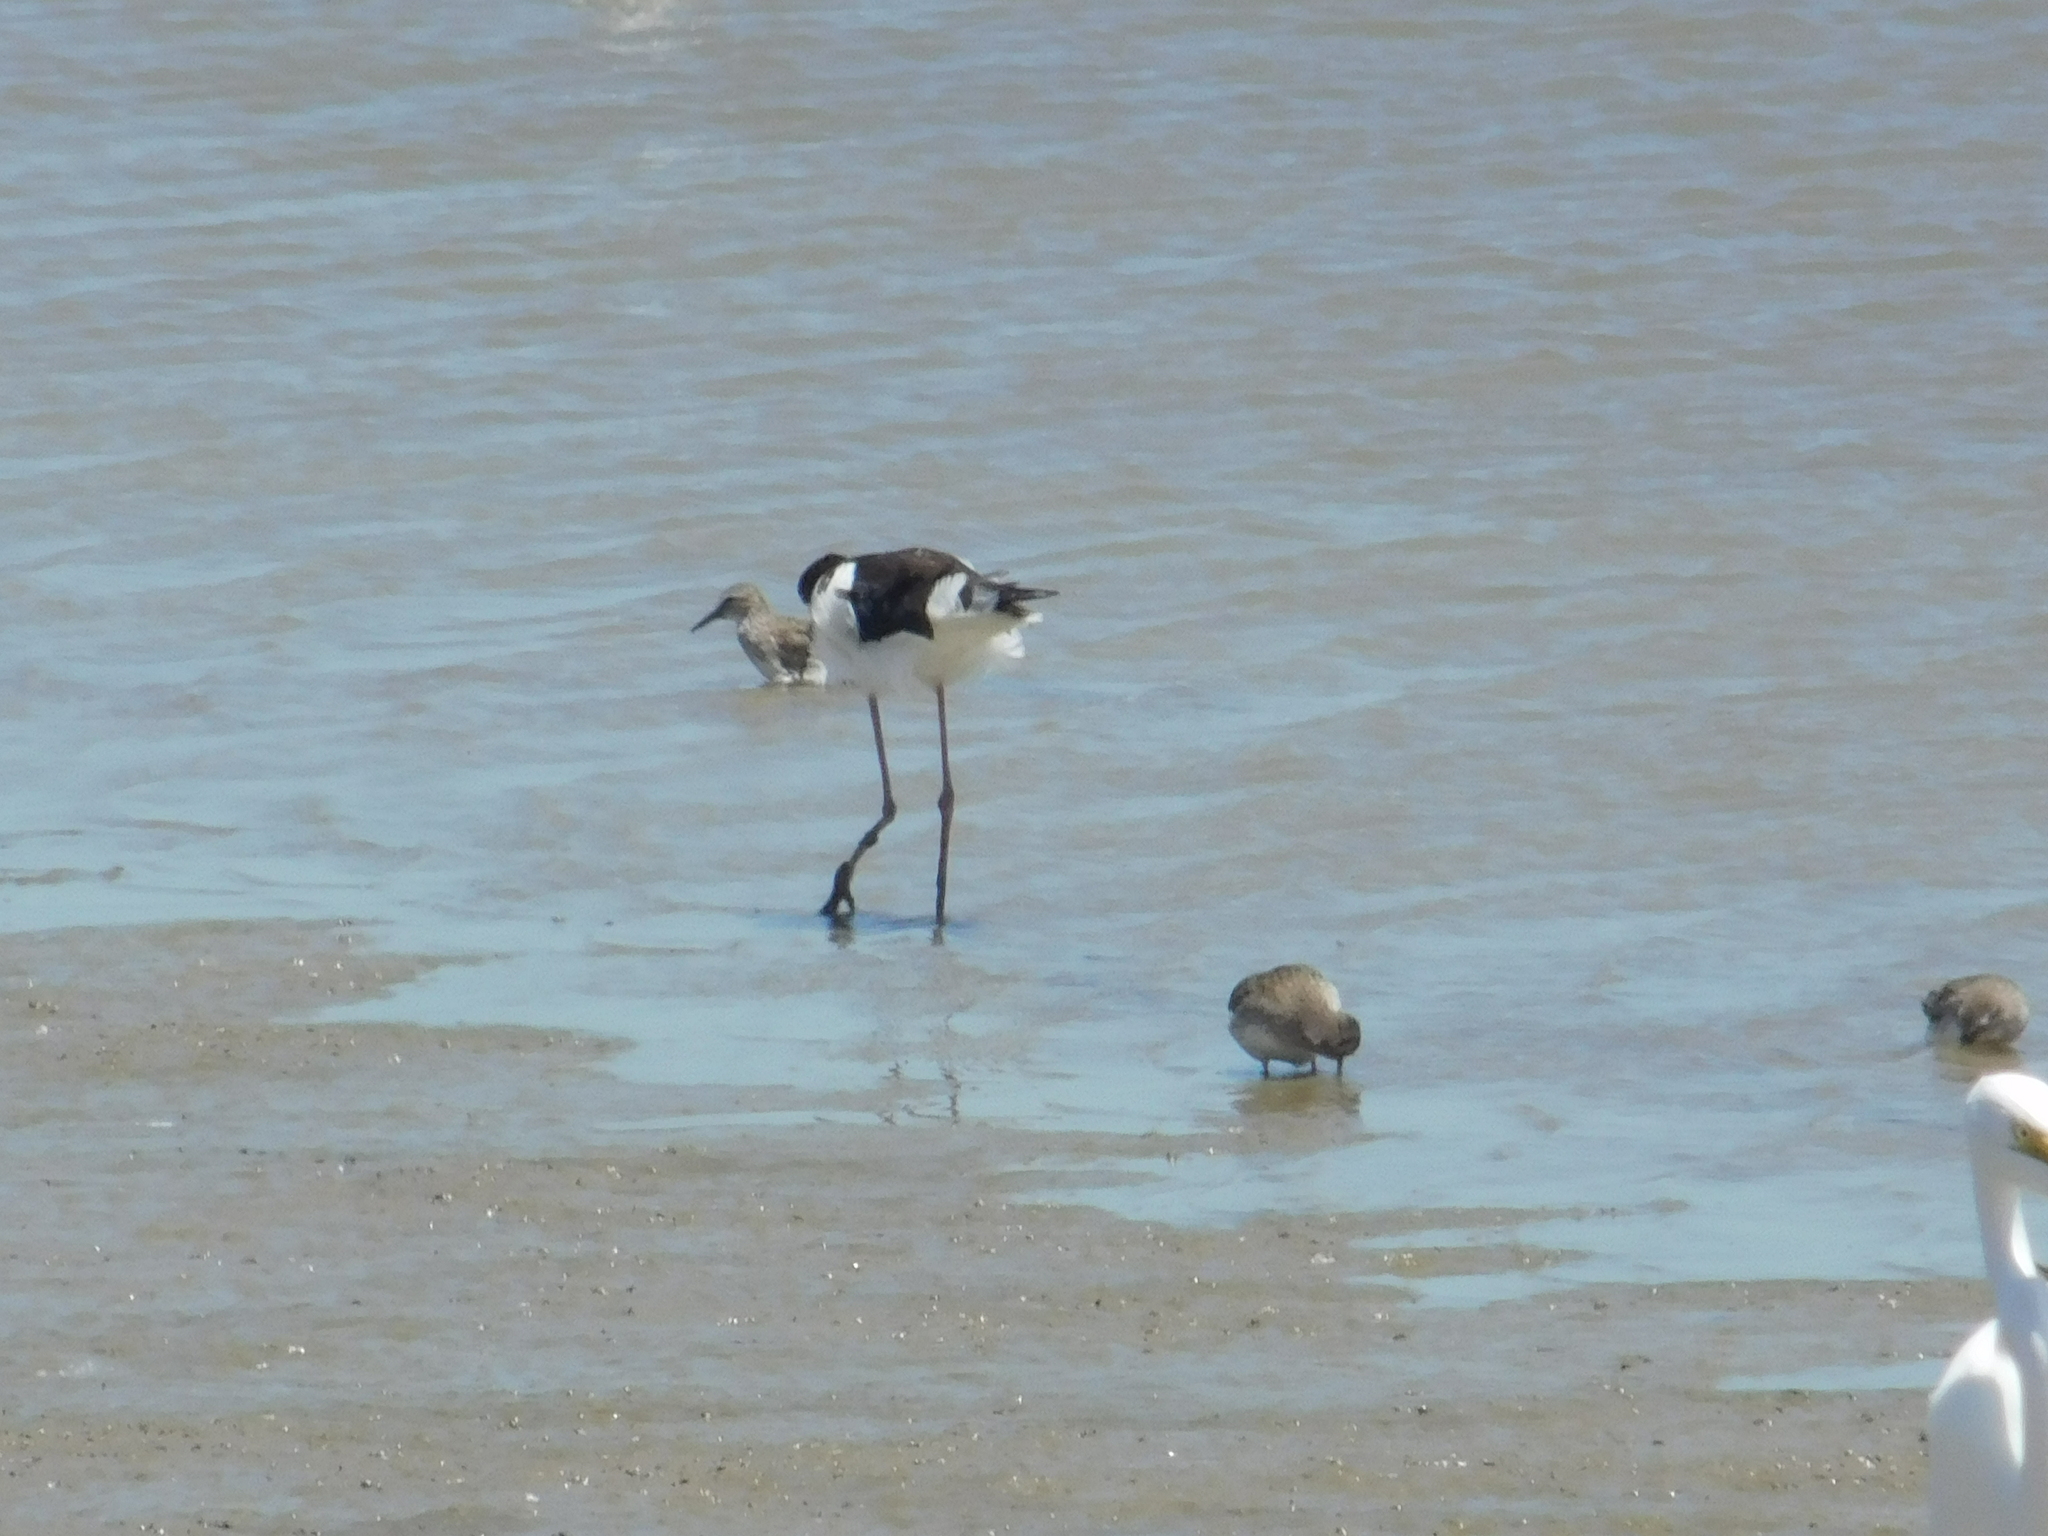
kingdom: Animalia
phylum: Chordata
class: Aves
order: Charadriiformes
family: Recurvirostridae
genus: Himantopus
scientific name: Himantopus mexicanus
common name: Black-necked stilt
